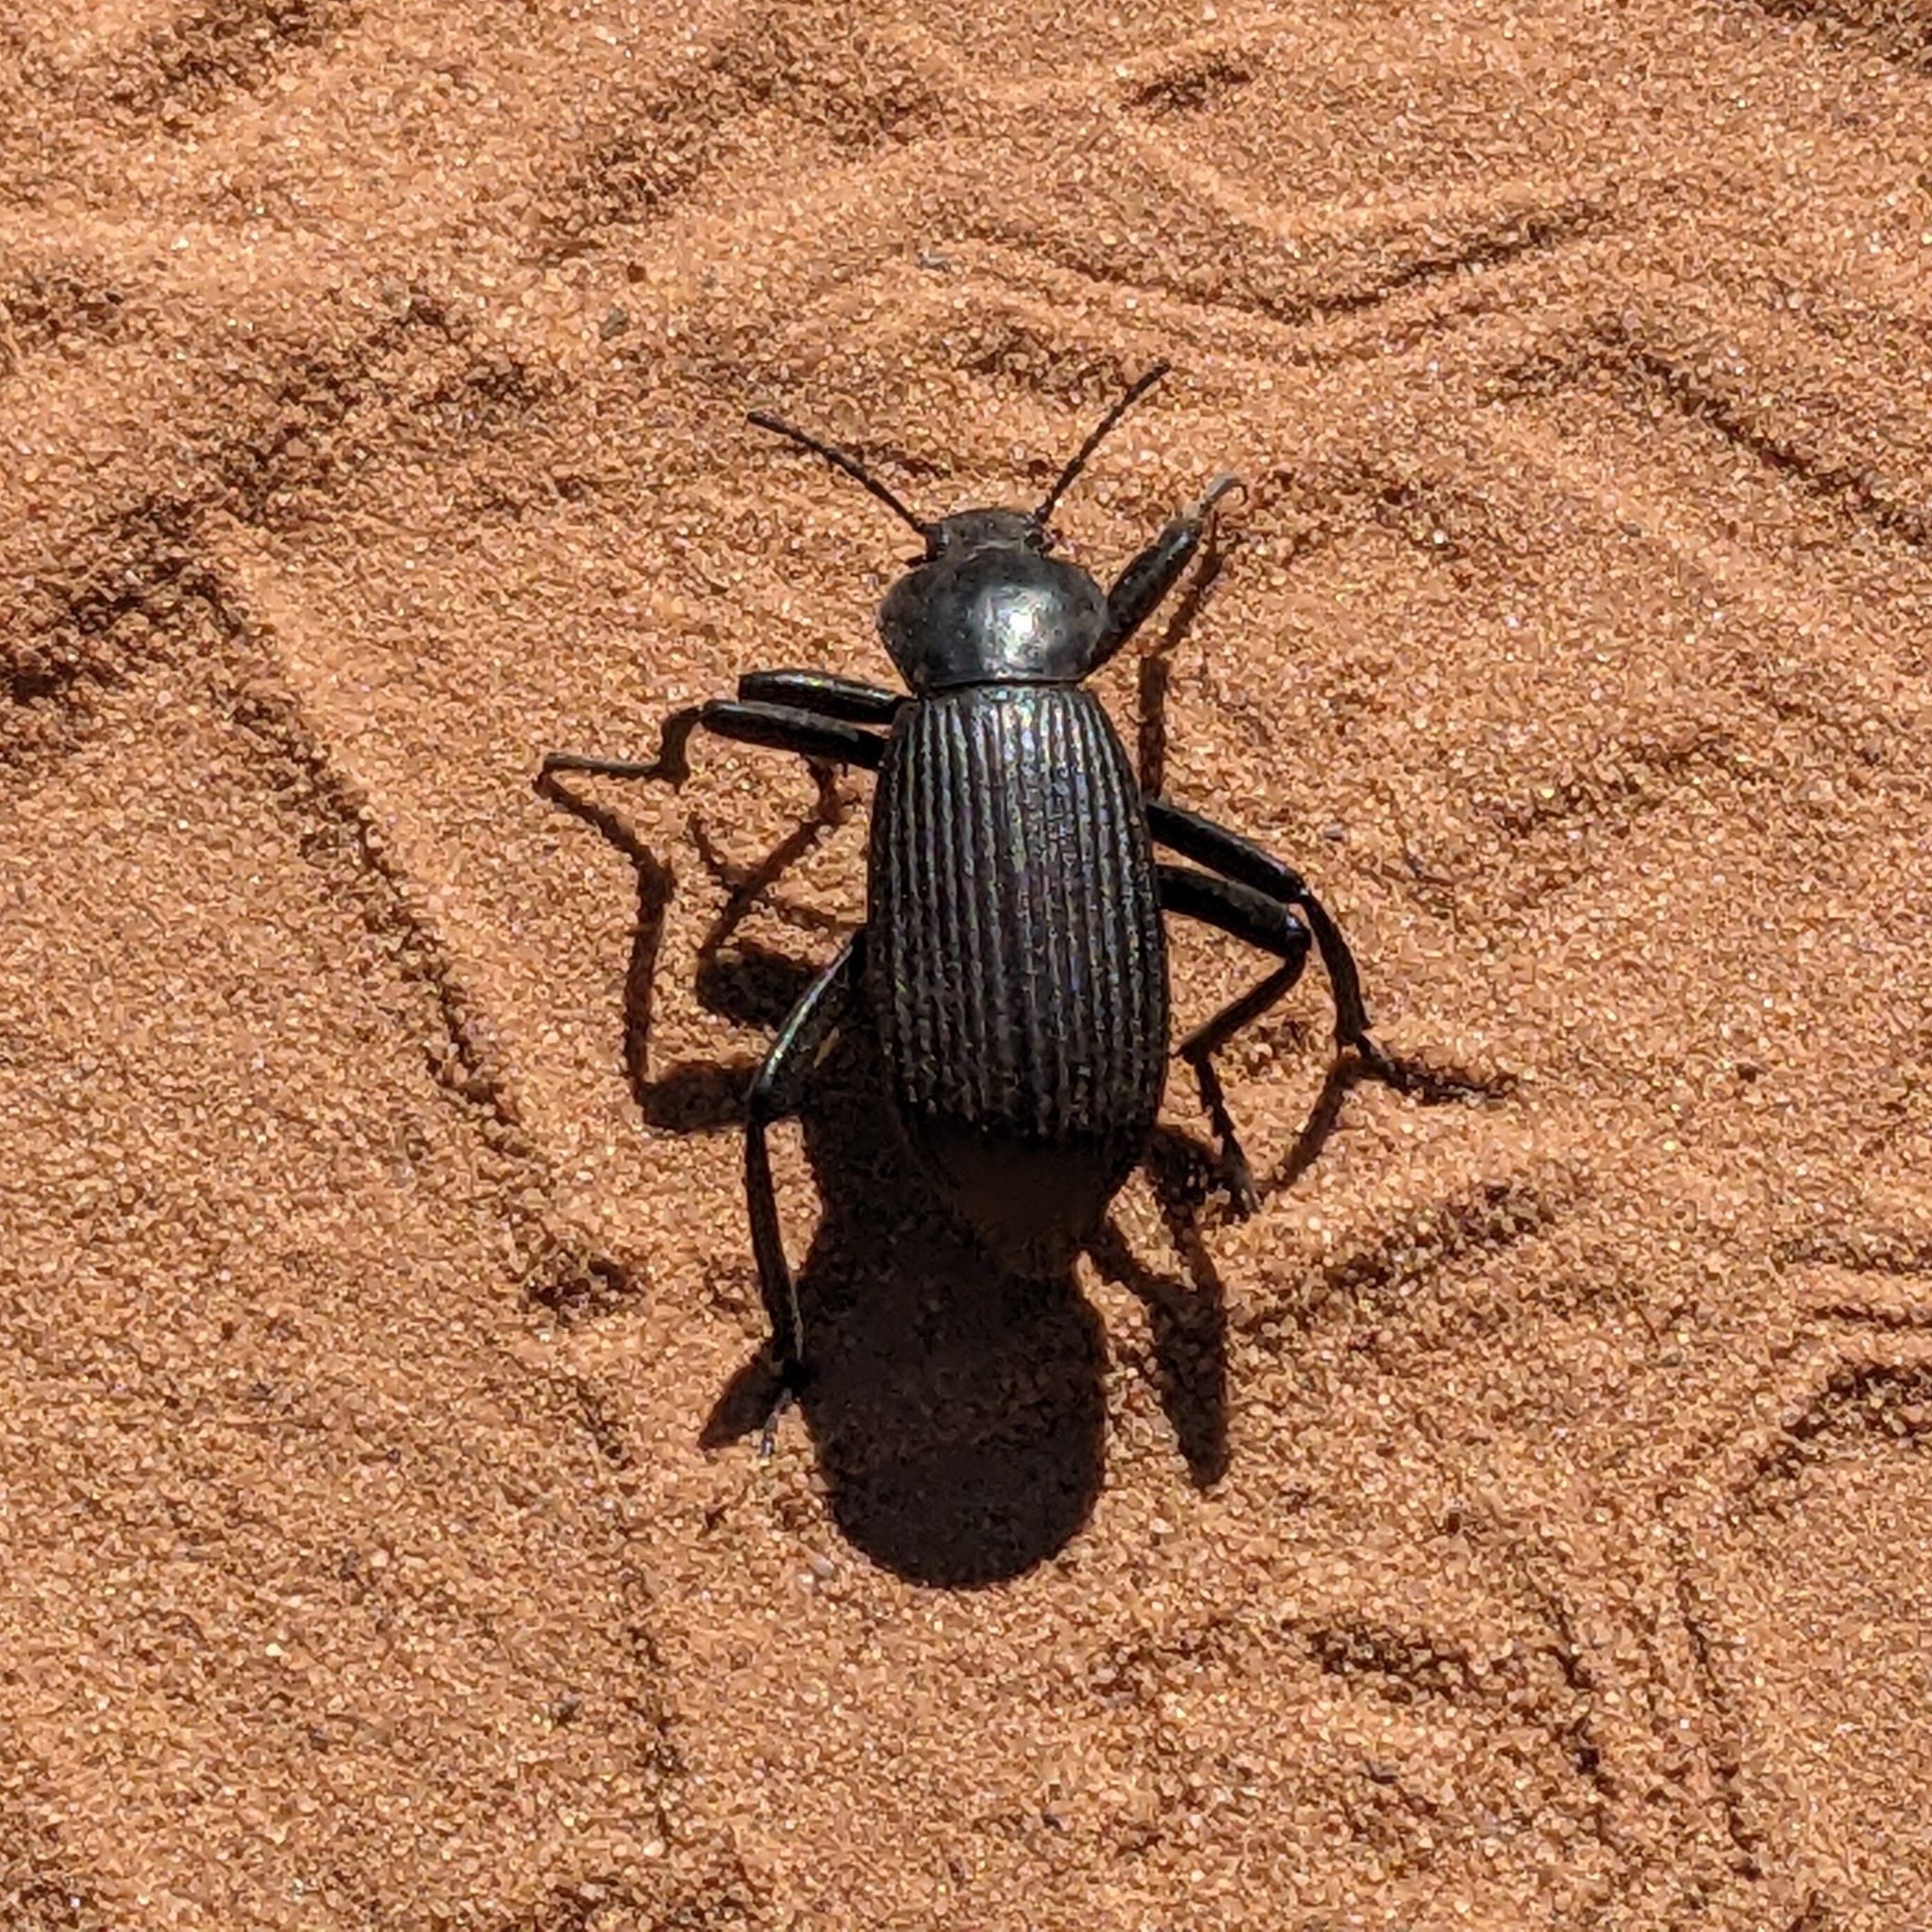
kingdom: Animalia
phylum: Arthropoda
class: Insecta
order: Coleoptera
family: Tenebrionidae
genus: Eleodes
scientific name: Eleodes obscura
